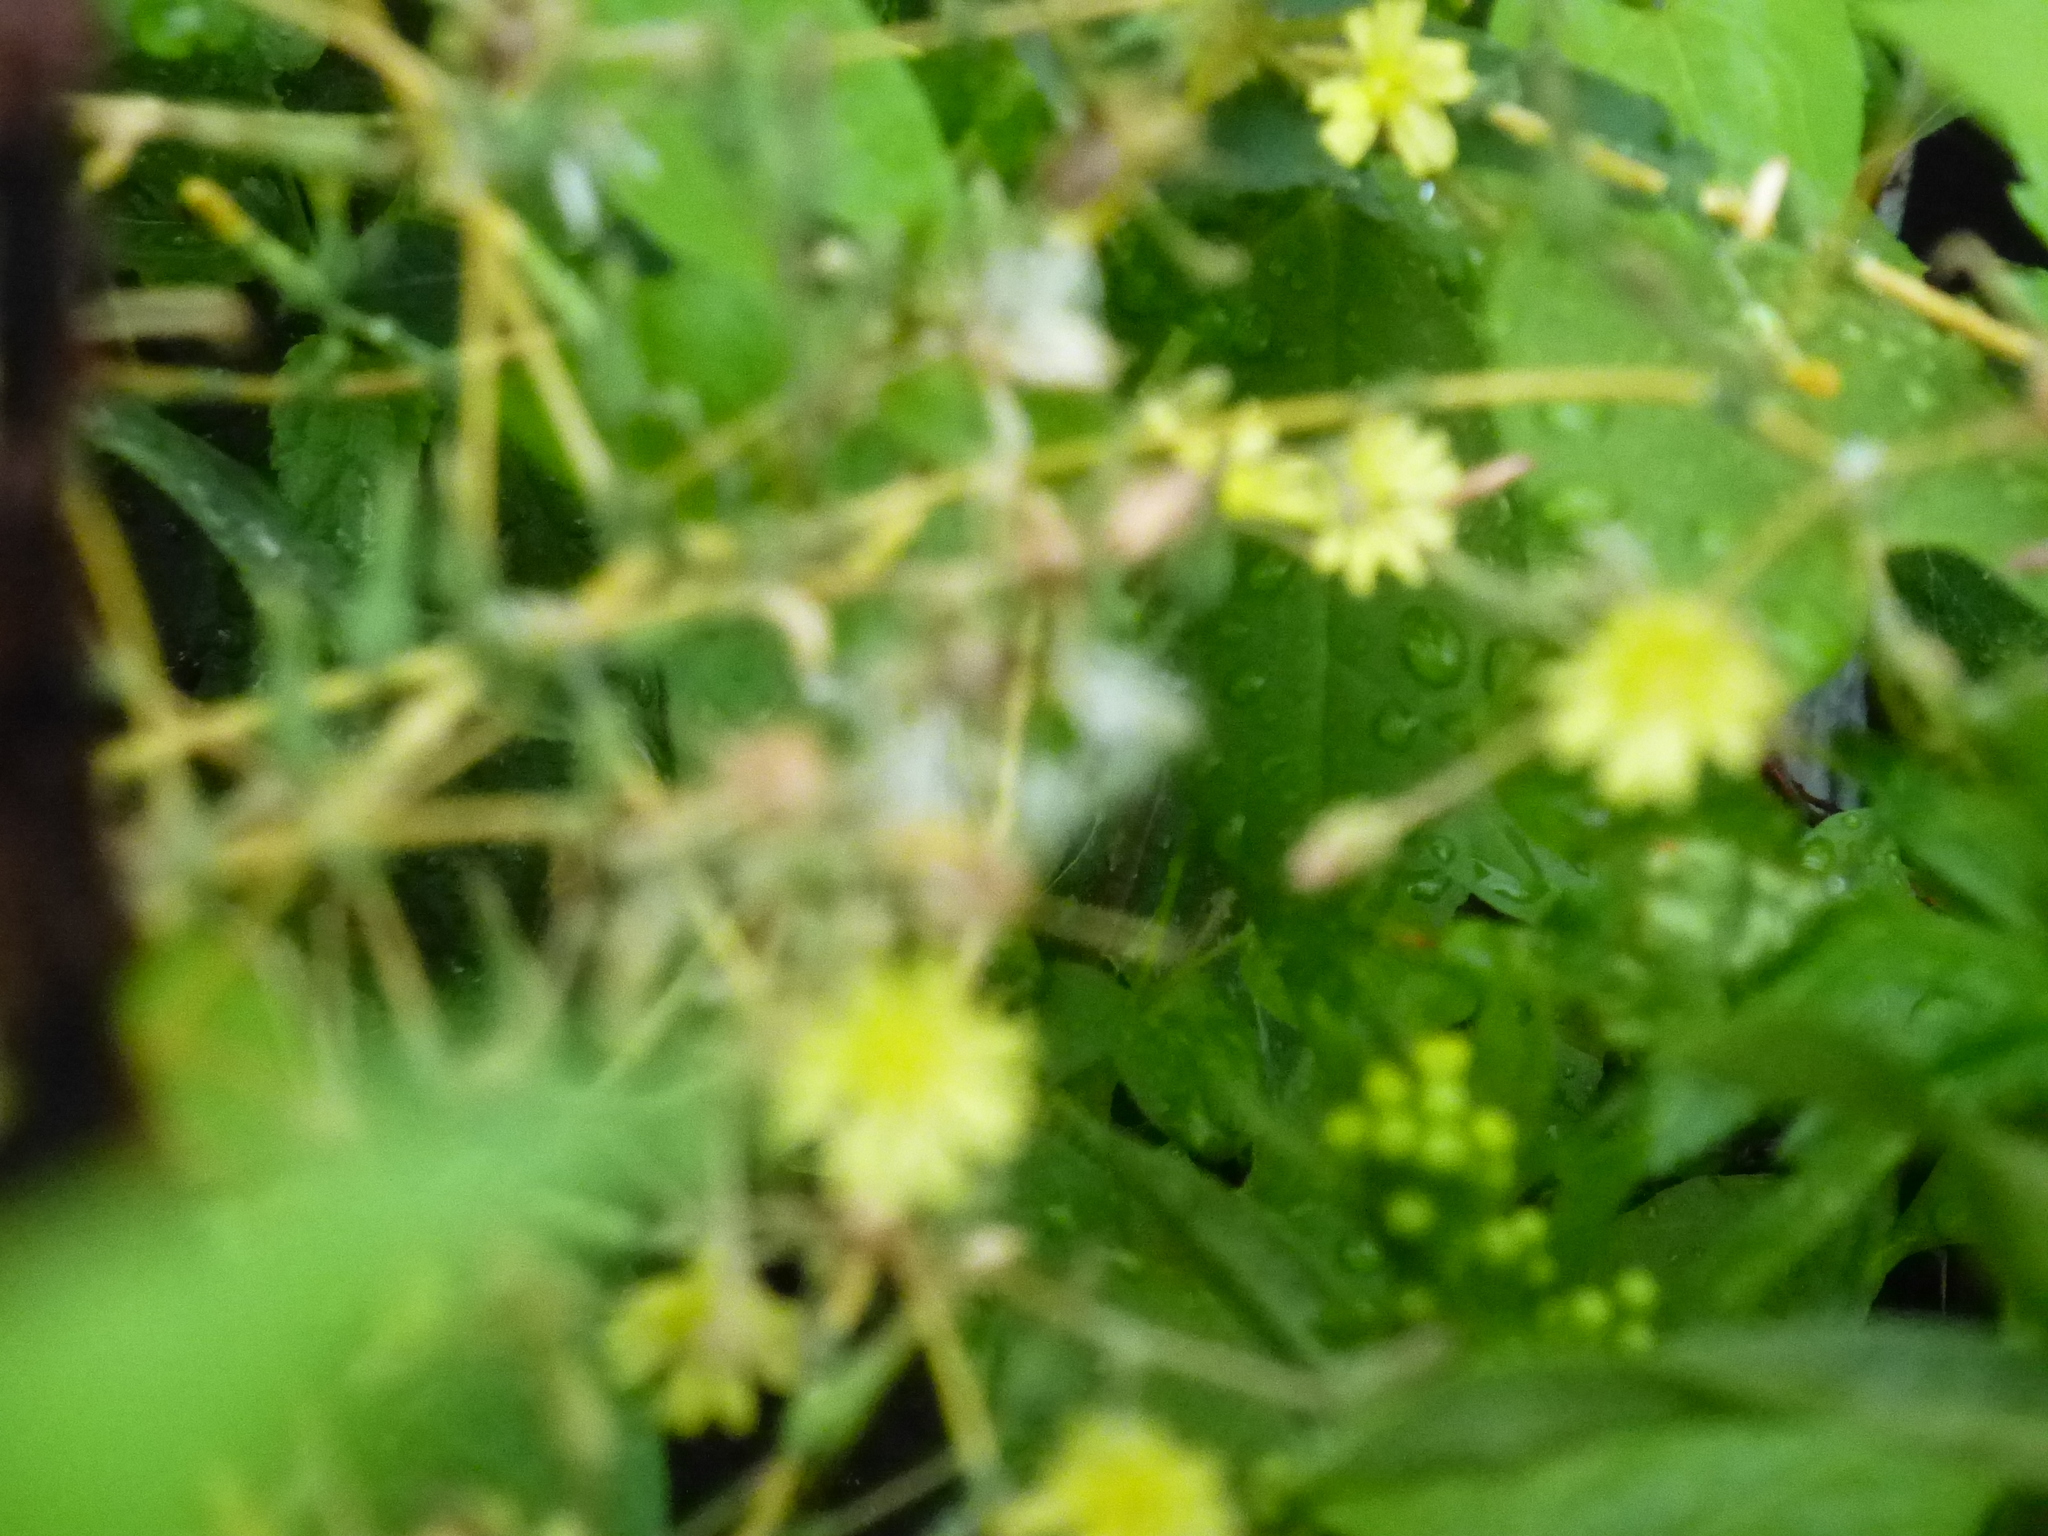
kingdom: Plantae
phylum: Tracheophyta
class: Magnoliopsida
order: Asterales
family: Asteraceae
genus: Lactuca
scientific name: Lactuca serriola
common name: Prickly lettuce
